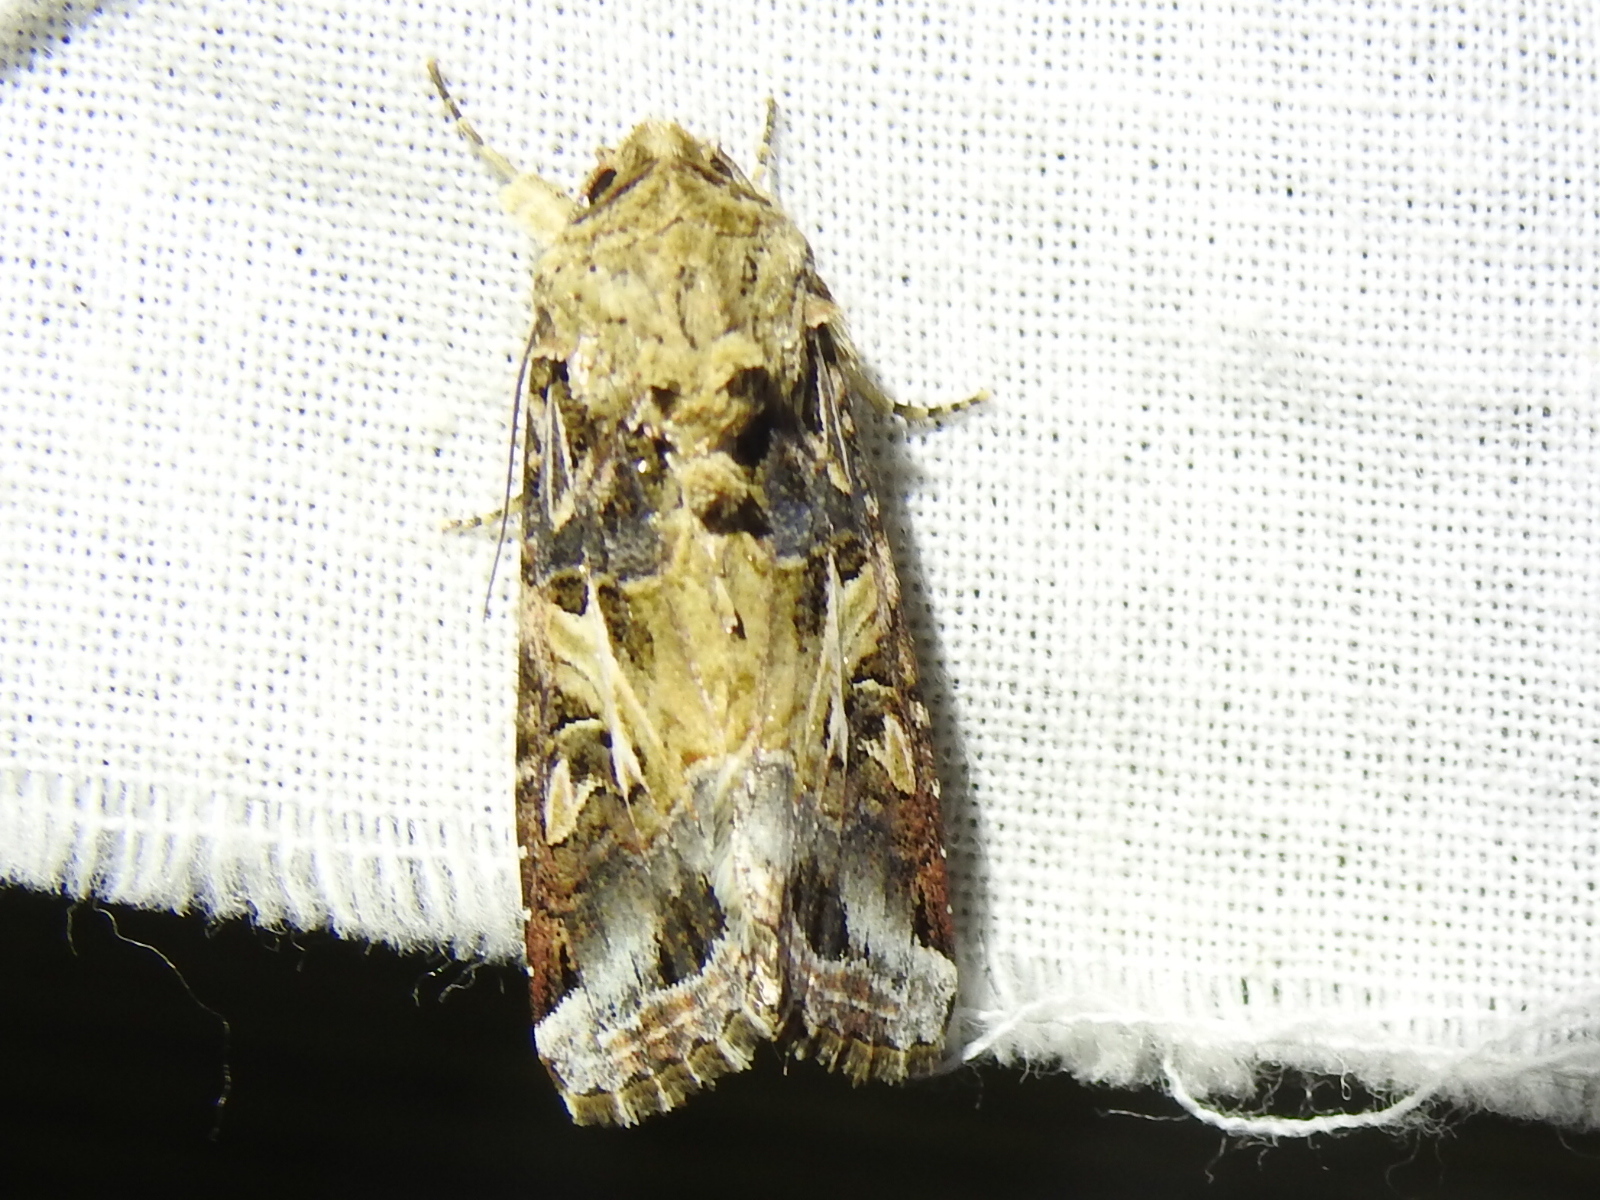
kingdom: Animalia
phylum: Arthropoda
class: Insecta
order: Lepidoptera
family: Noctuidae
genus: Spodoptera
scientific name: Spodoptera ornithogalli
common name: Yellow-striped armyworm
